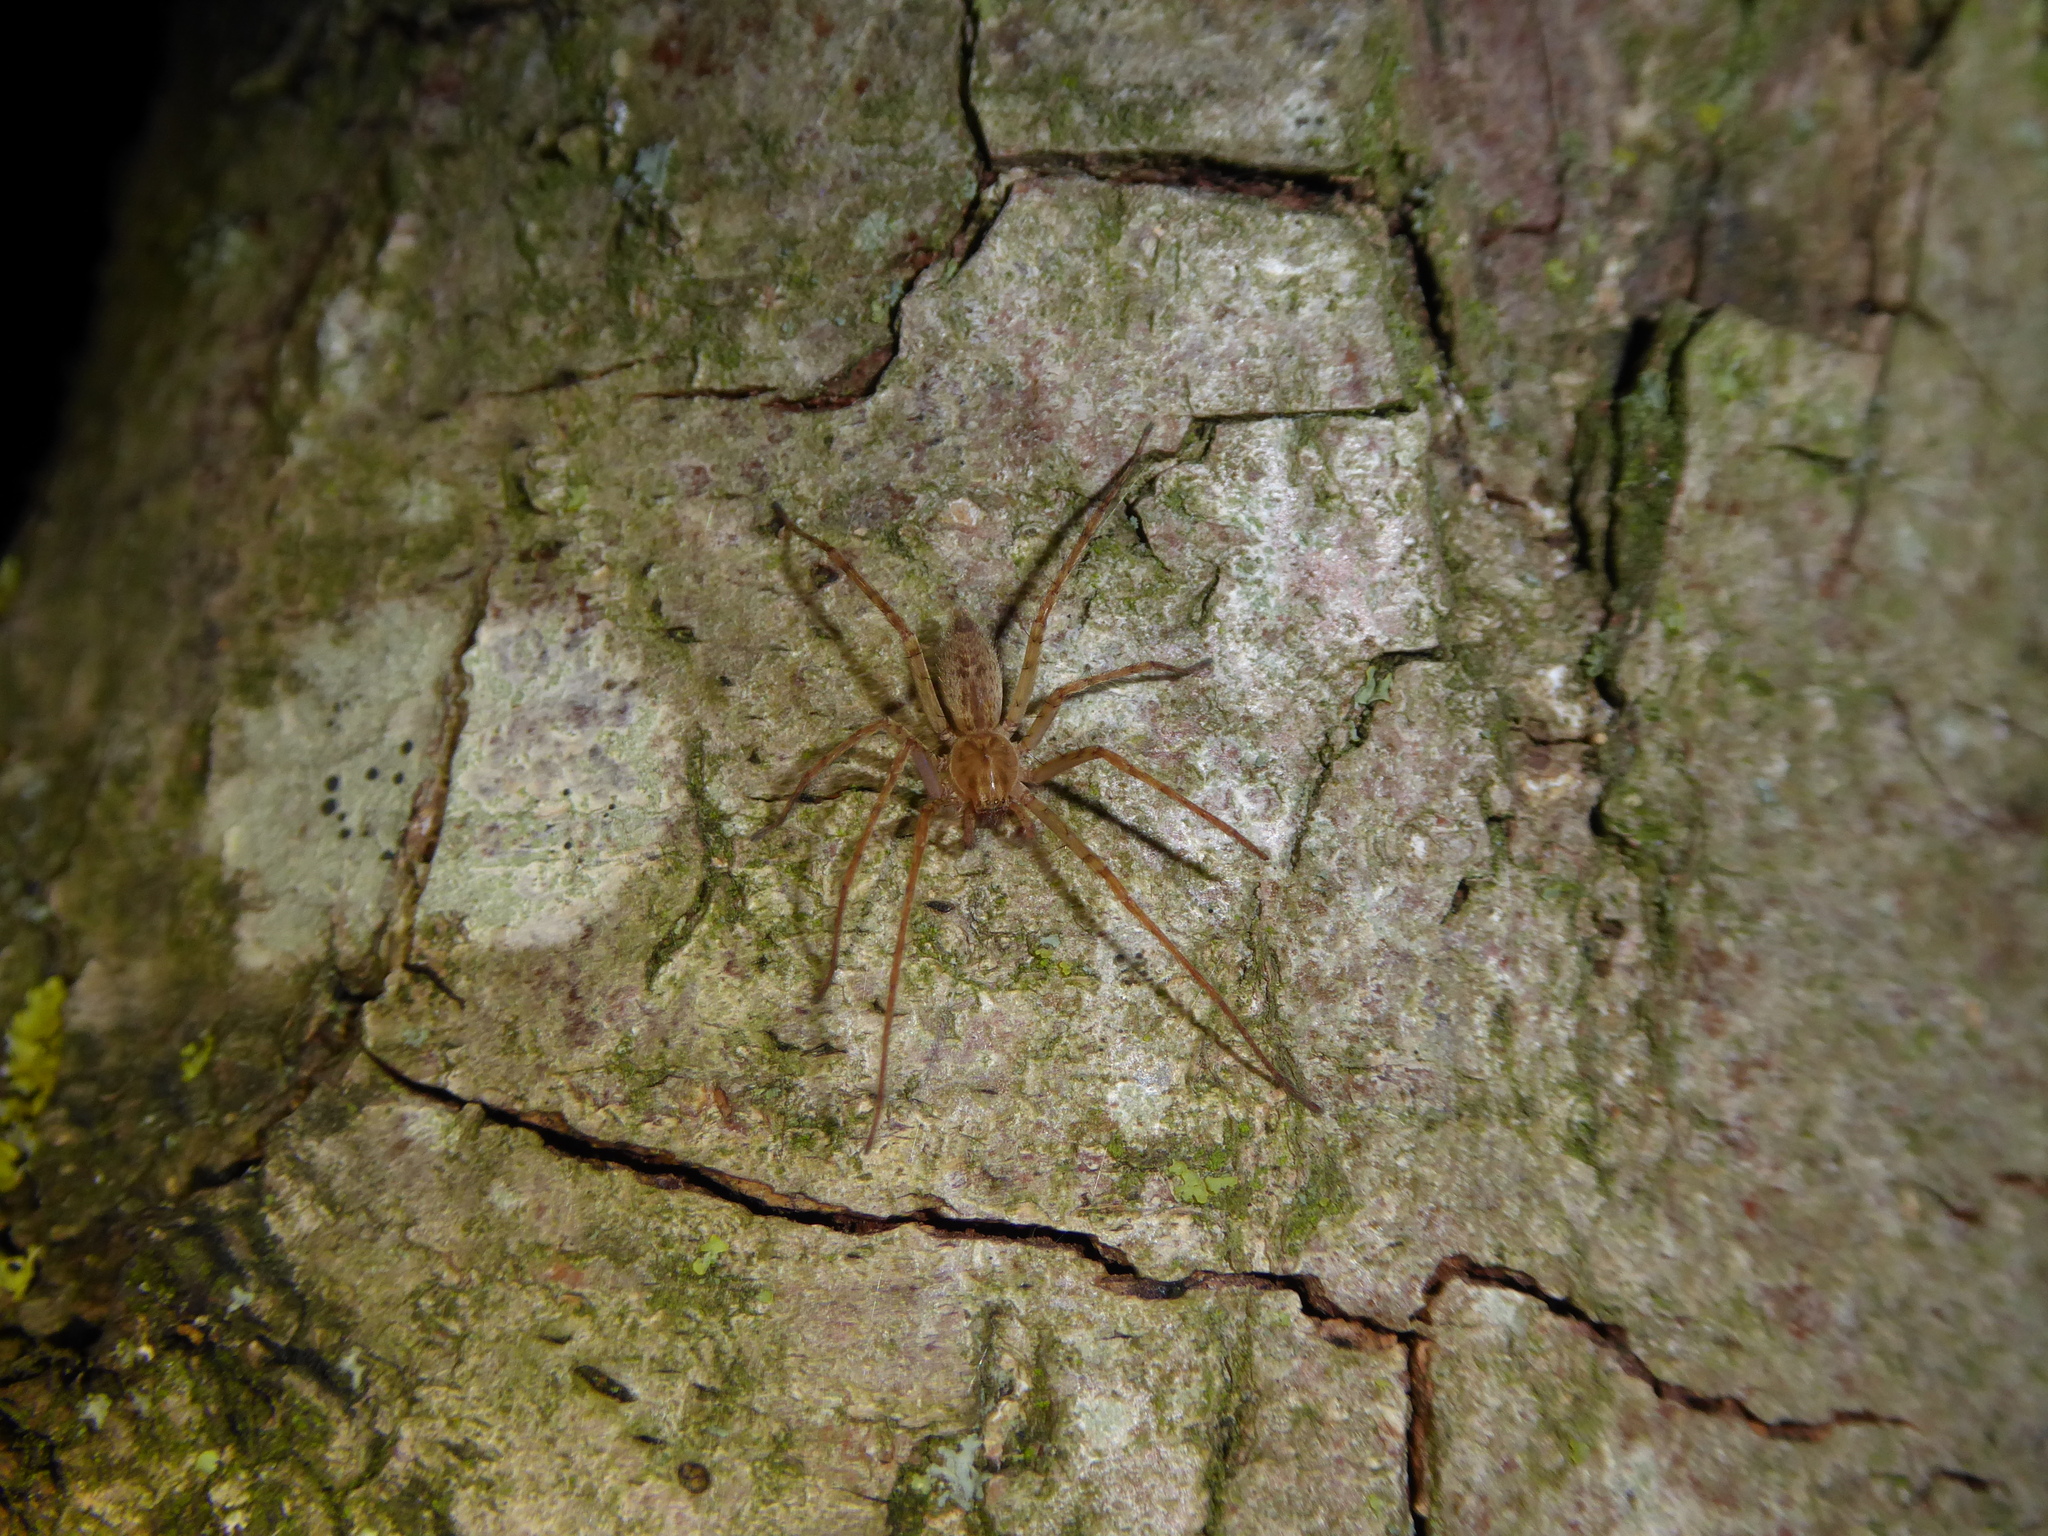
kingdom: Animalia
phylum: Arthropoda
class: Arachnida
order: Araneae
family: Anyphaenidae
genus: Anyphaena
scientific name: Anyphaena
